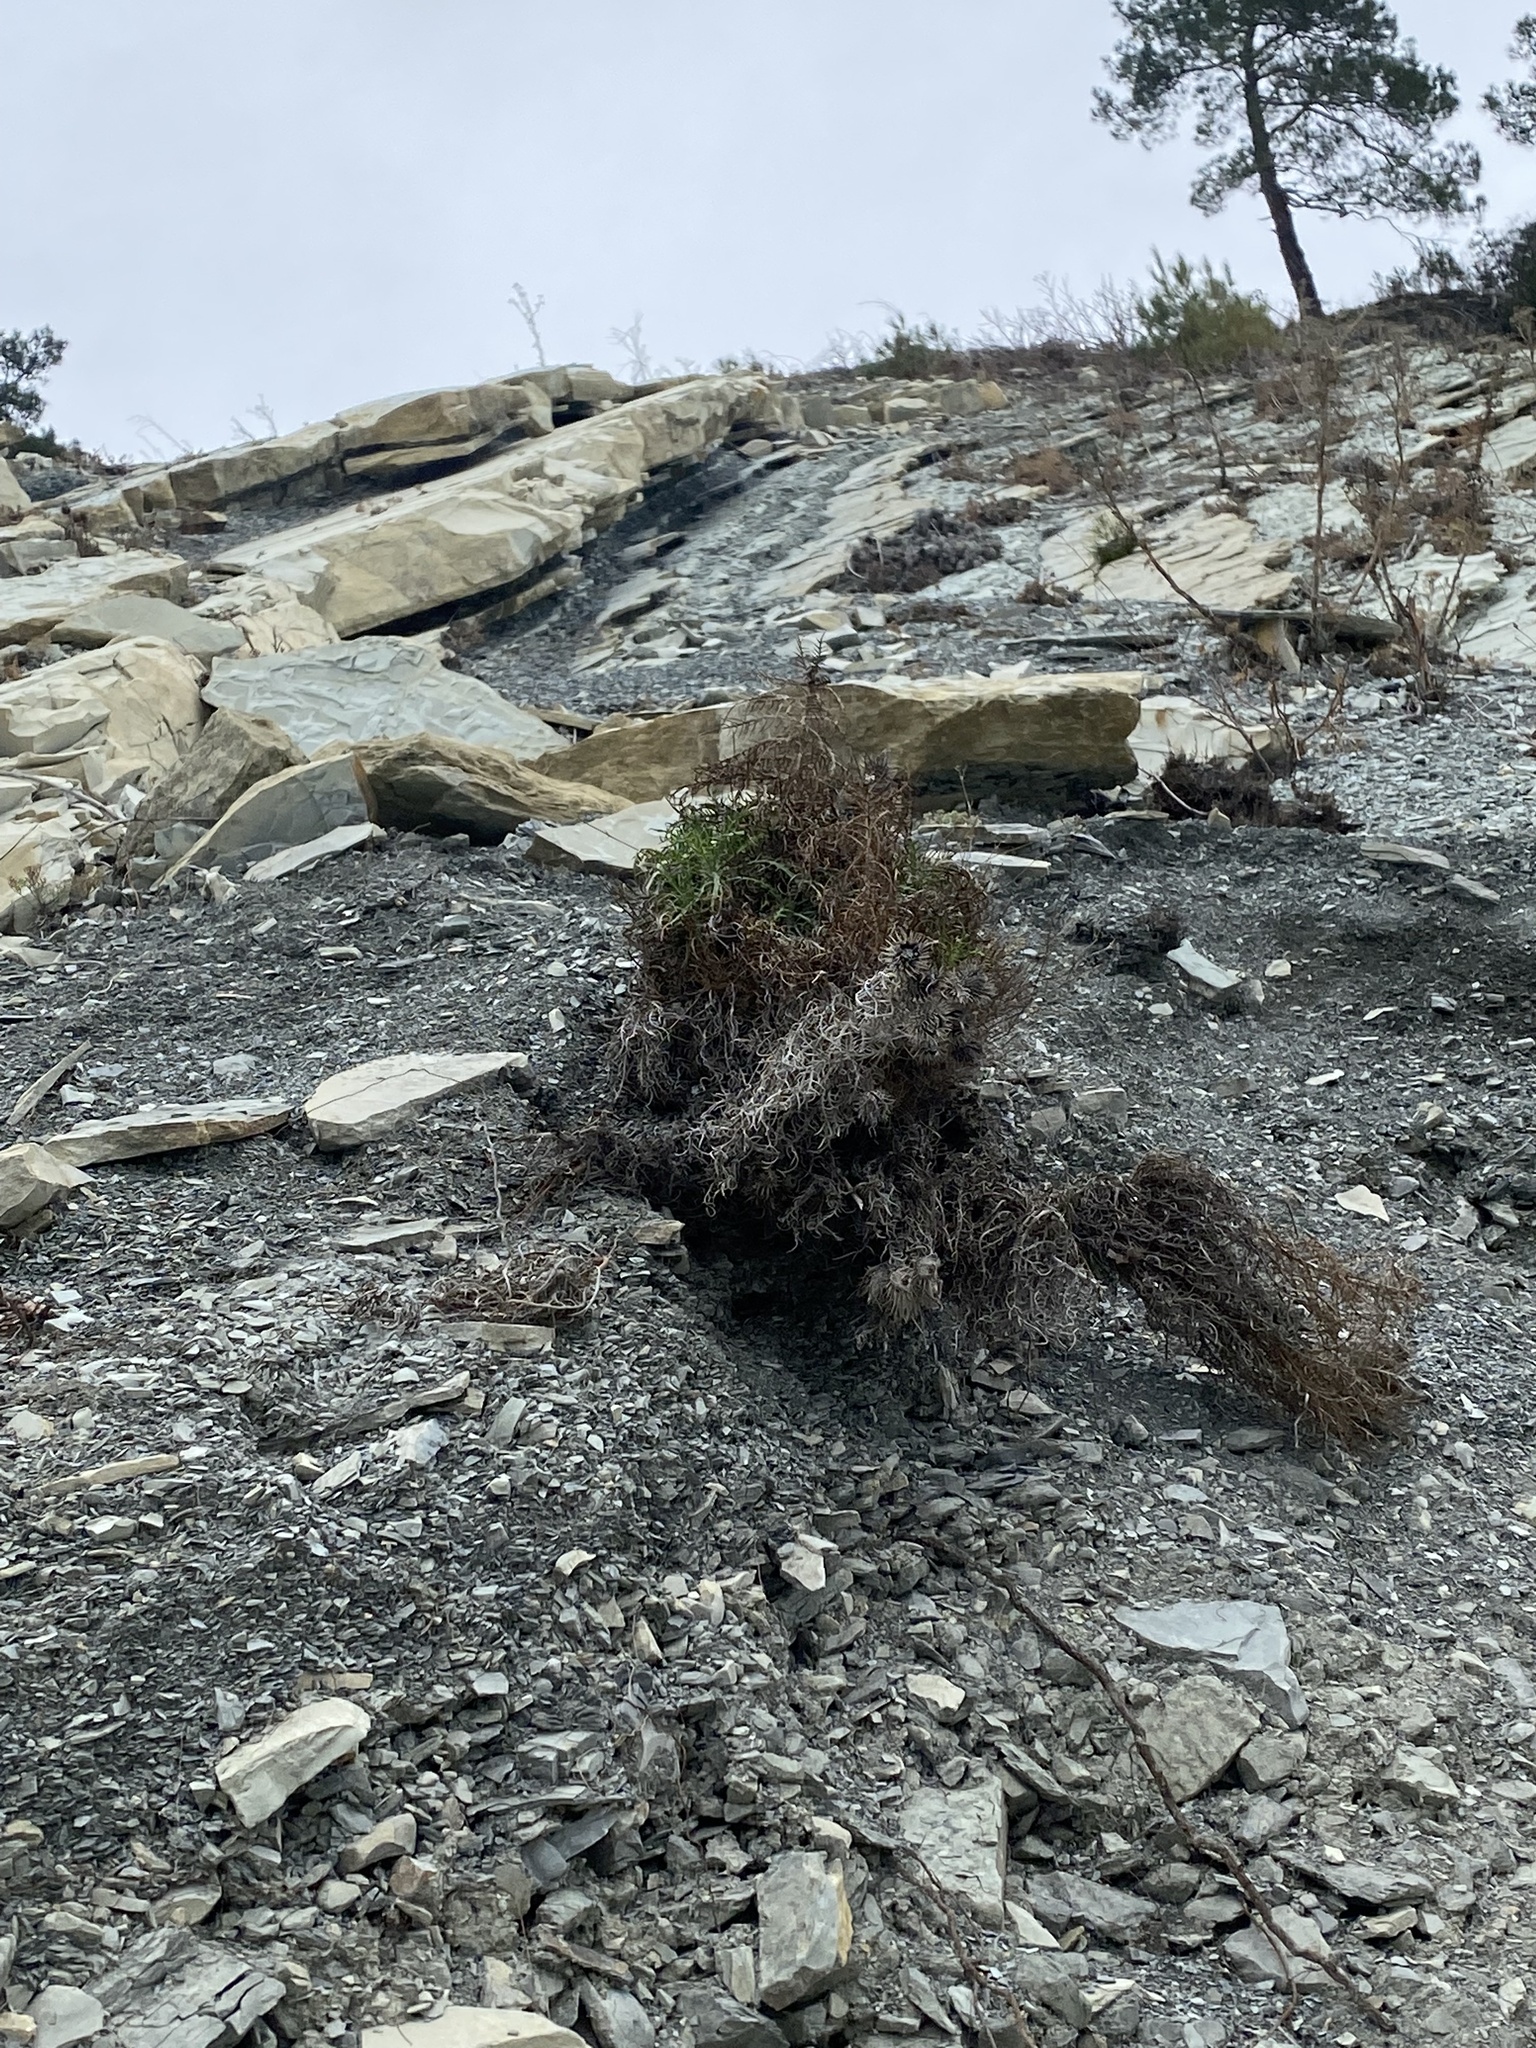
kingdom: Plantae
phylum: Tracheophyta
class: Magnoliopsida
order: Asterales
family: Asteraceae
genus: Ptilostemon
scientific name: Ptilostemon echinocephalus
